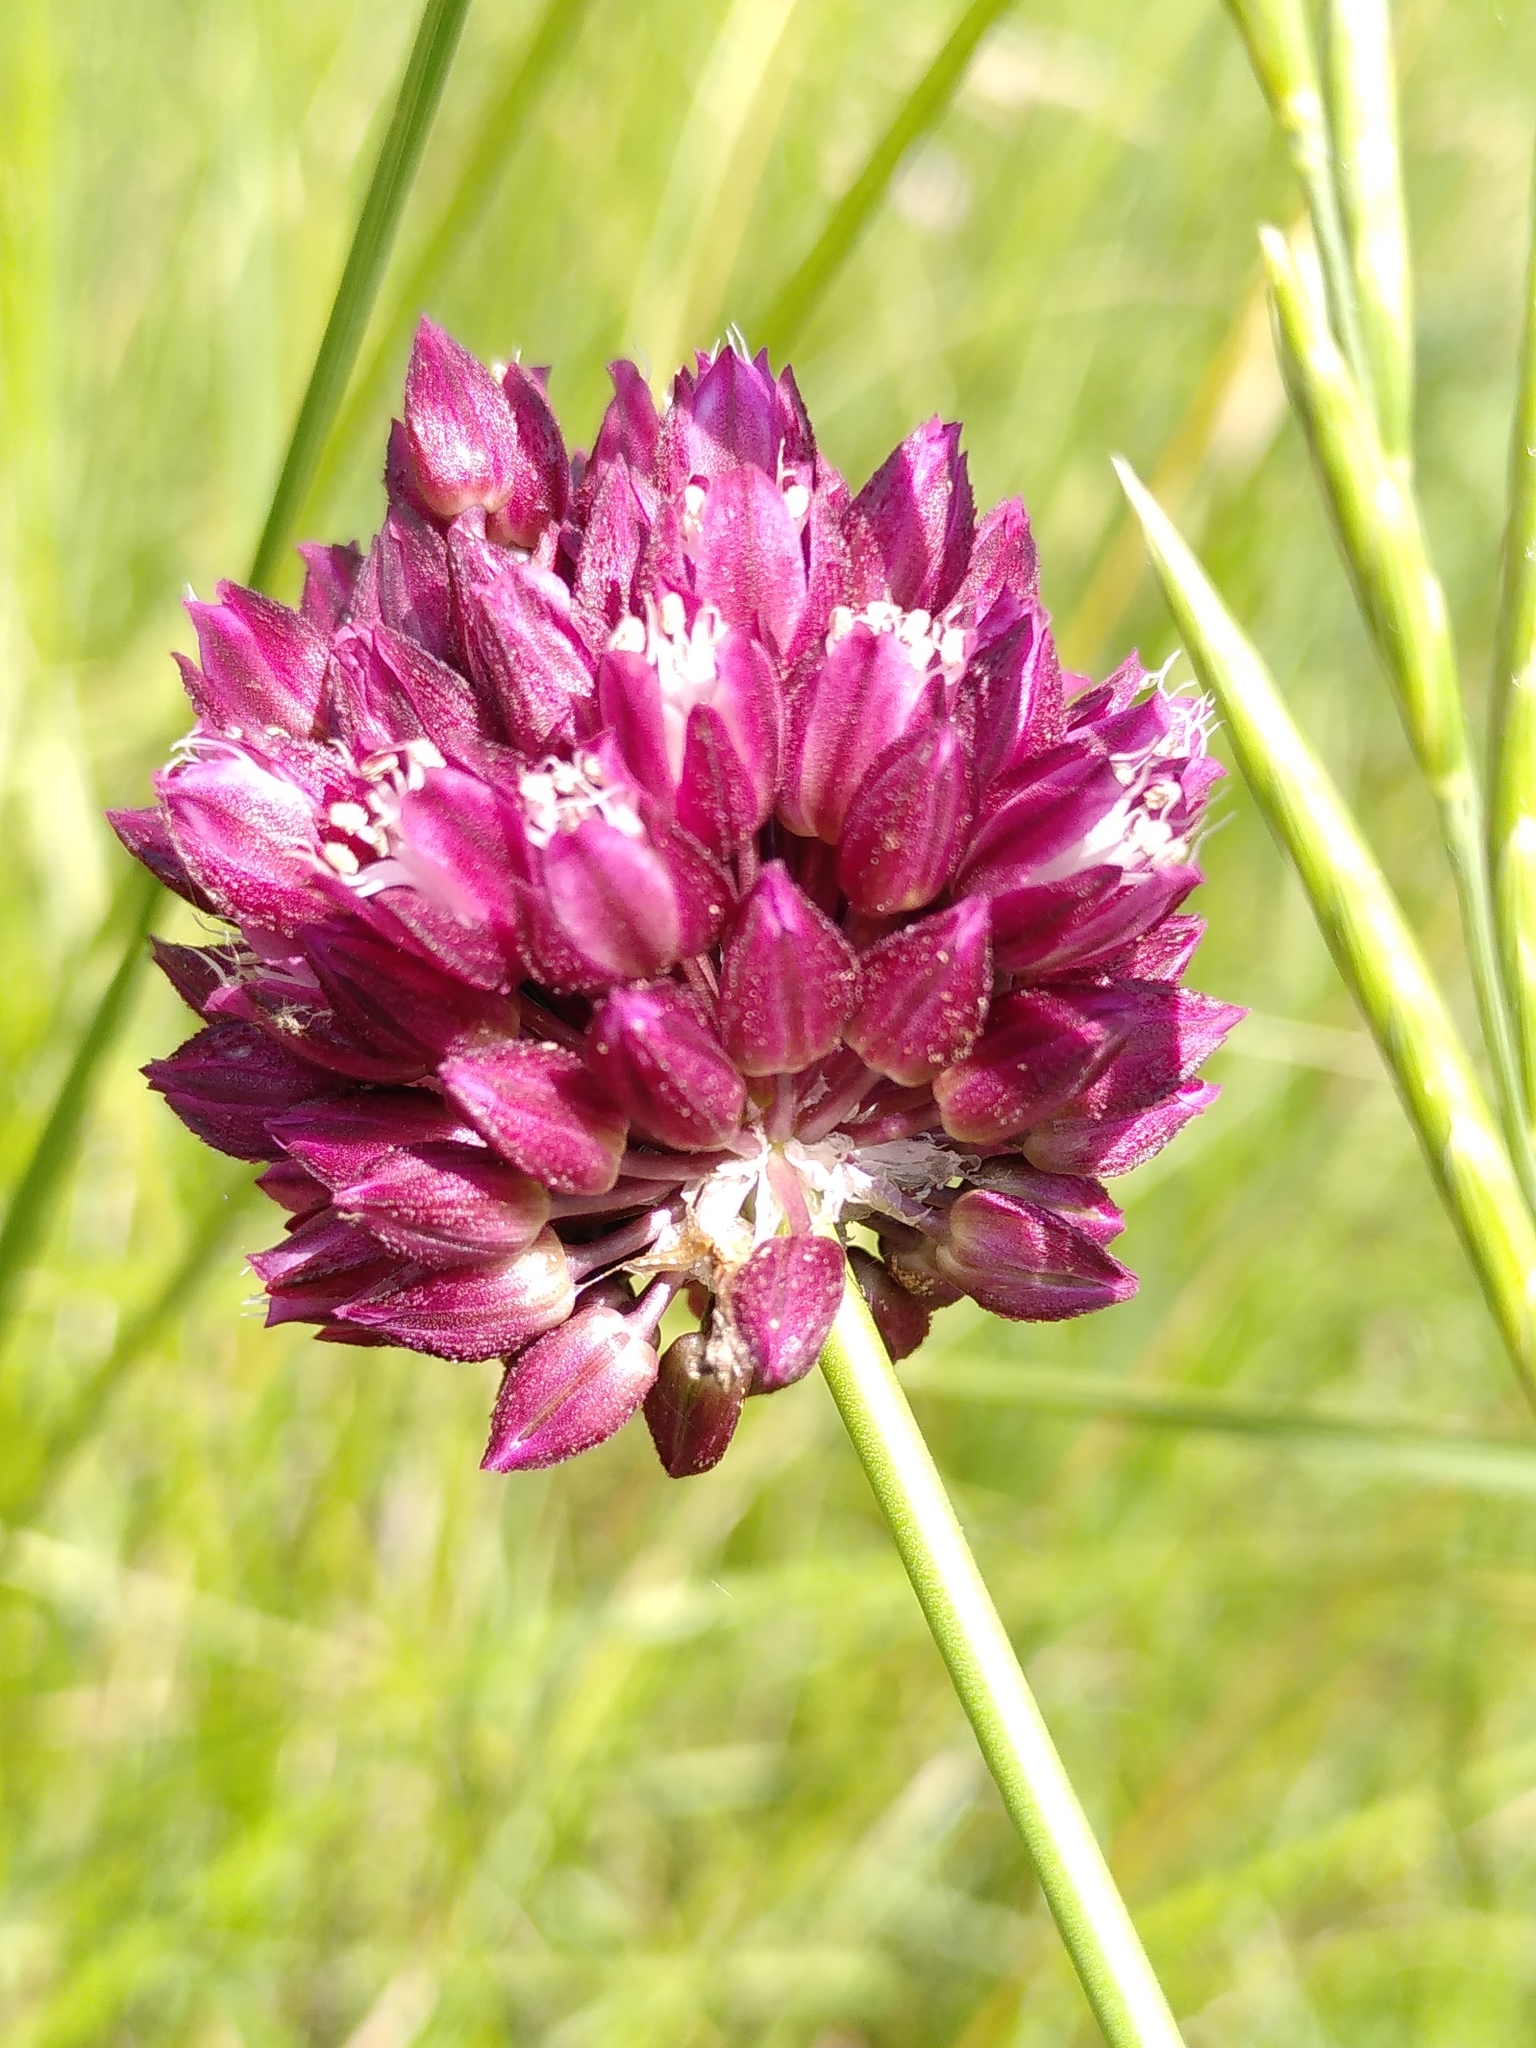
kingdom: Plantae
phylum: Tracheophyta
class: Liliopsida
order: Asparagales
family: Amaryllidaceae
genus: Allium
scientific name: Allium rotundum
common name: Sand leek
